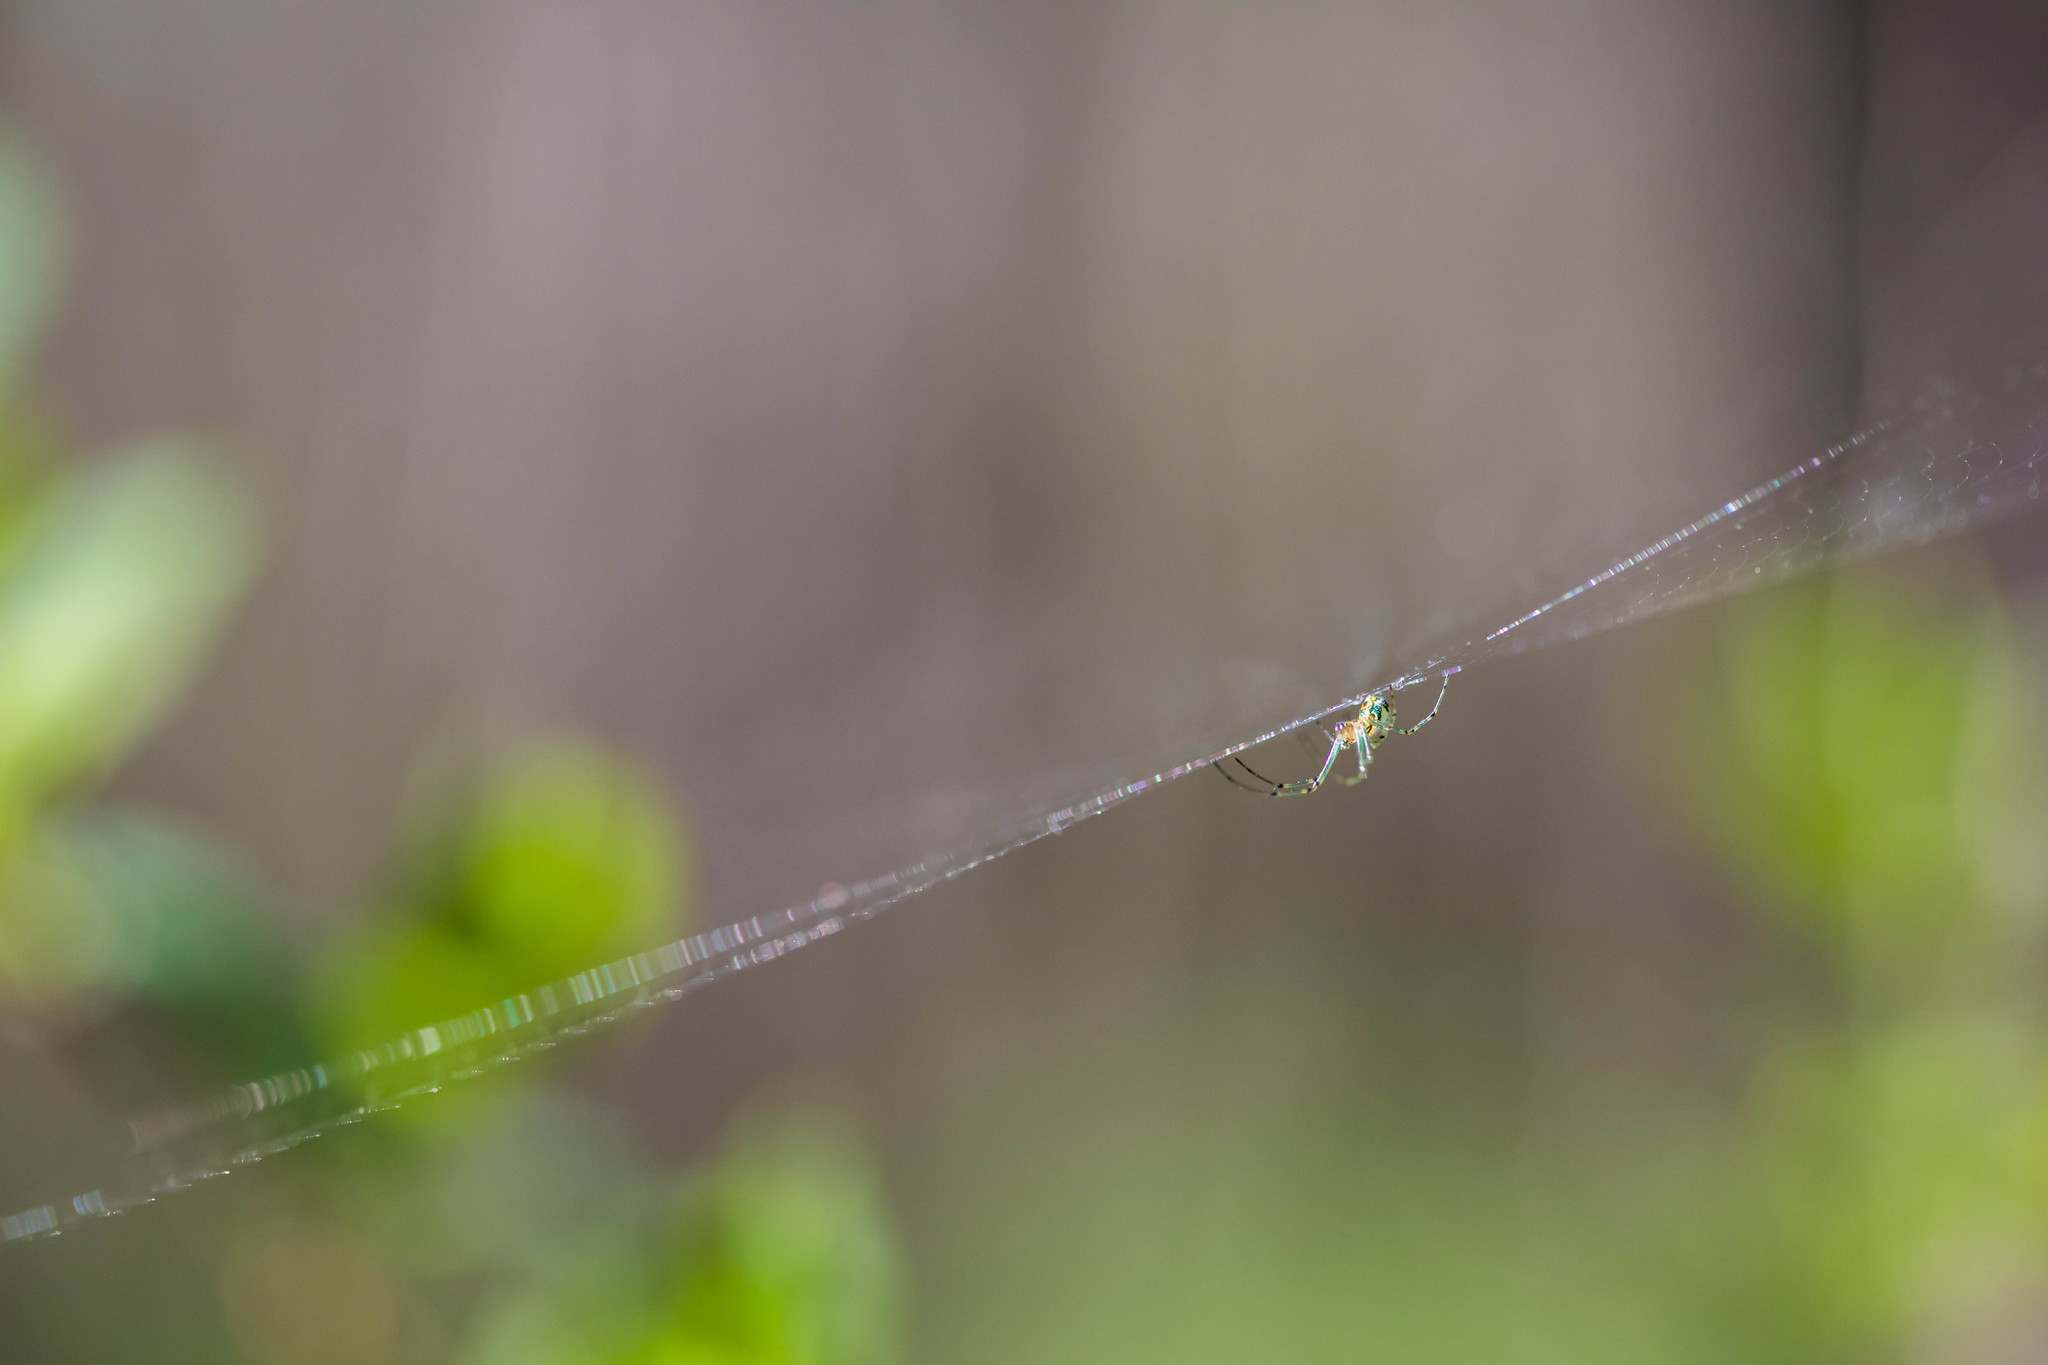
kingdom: Animalia
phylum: Arthropoda
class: Arachnida
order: Araneae
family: Tetragnathidae
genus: Leucauge
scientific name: Leucauge venusta
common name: Longjawed orb weavers
